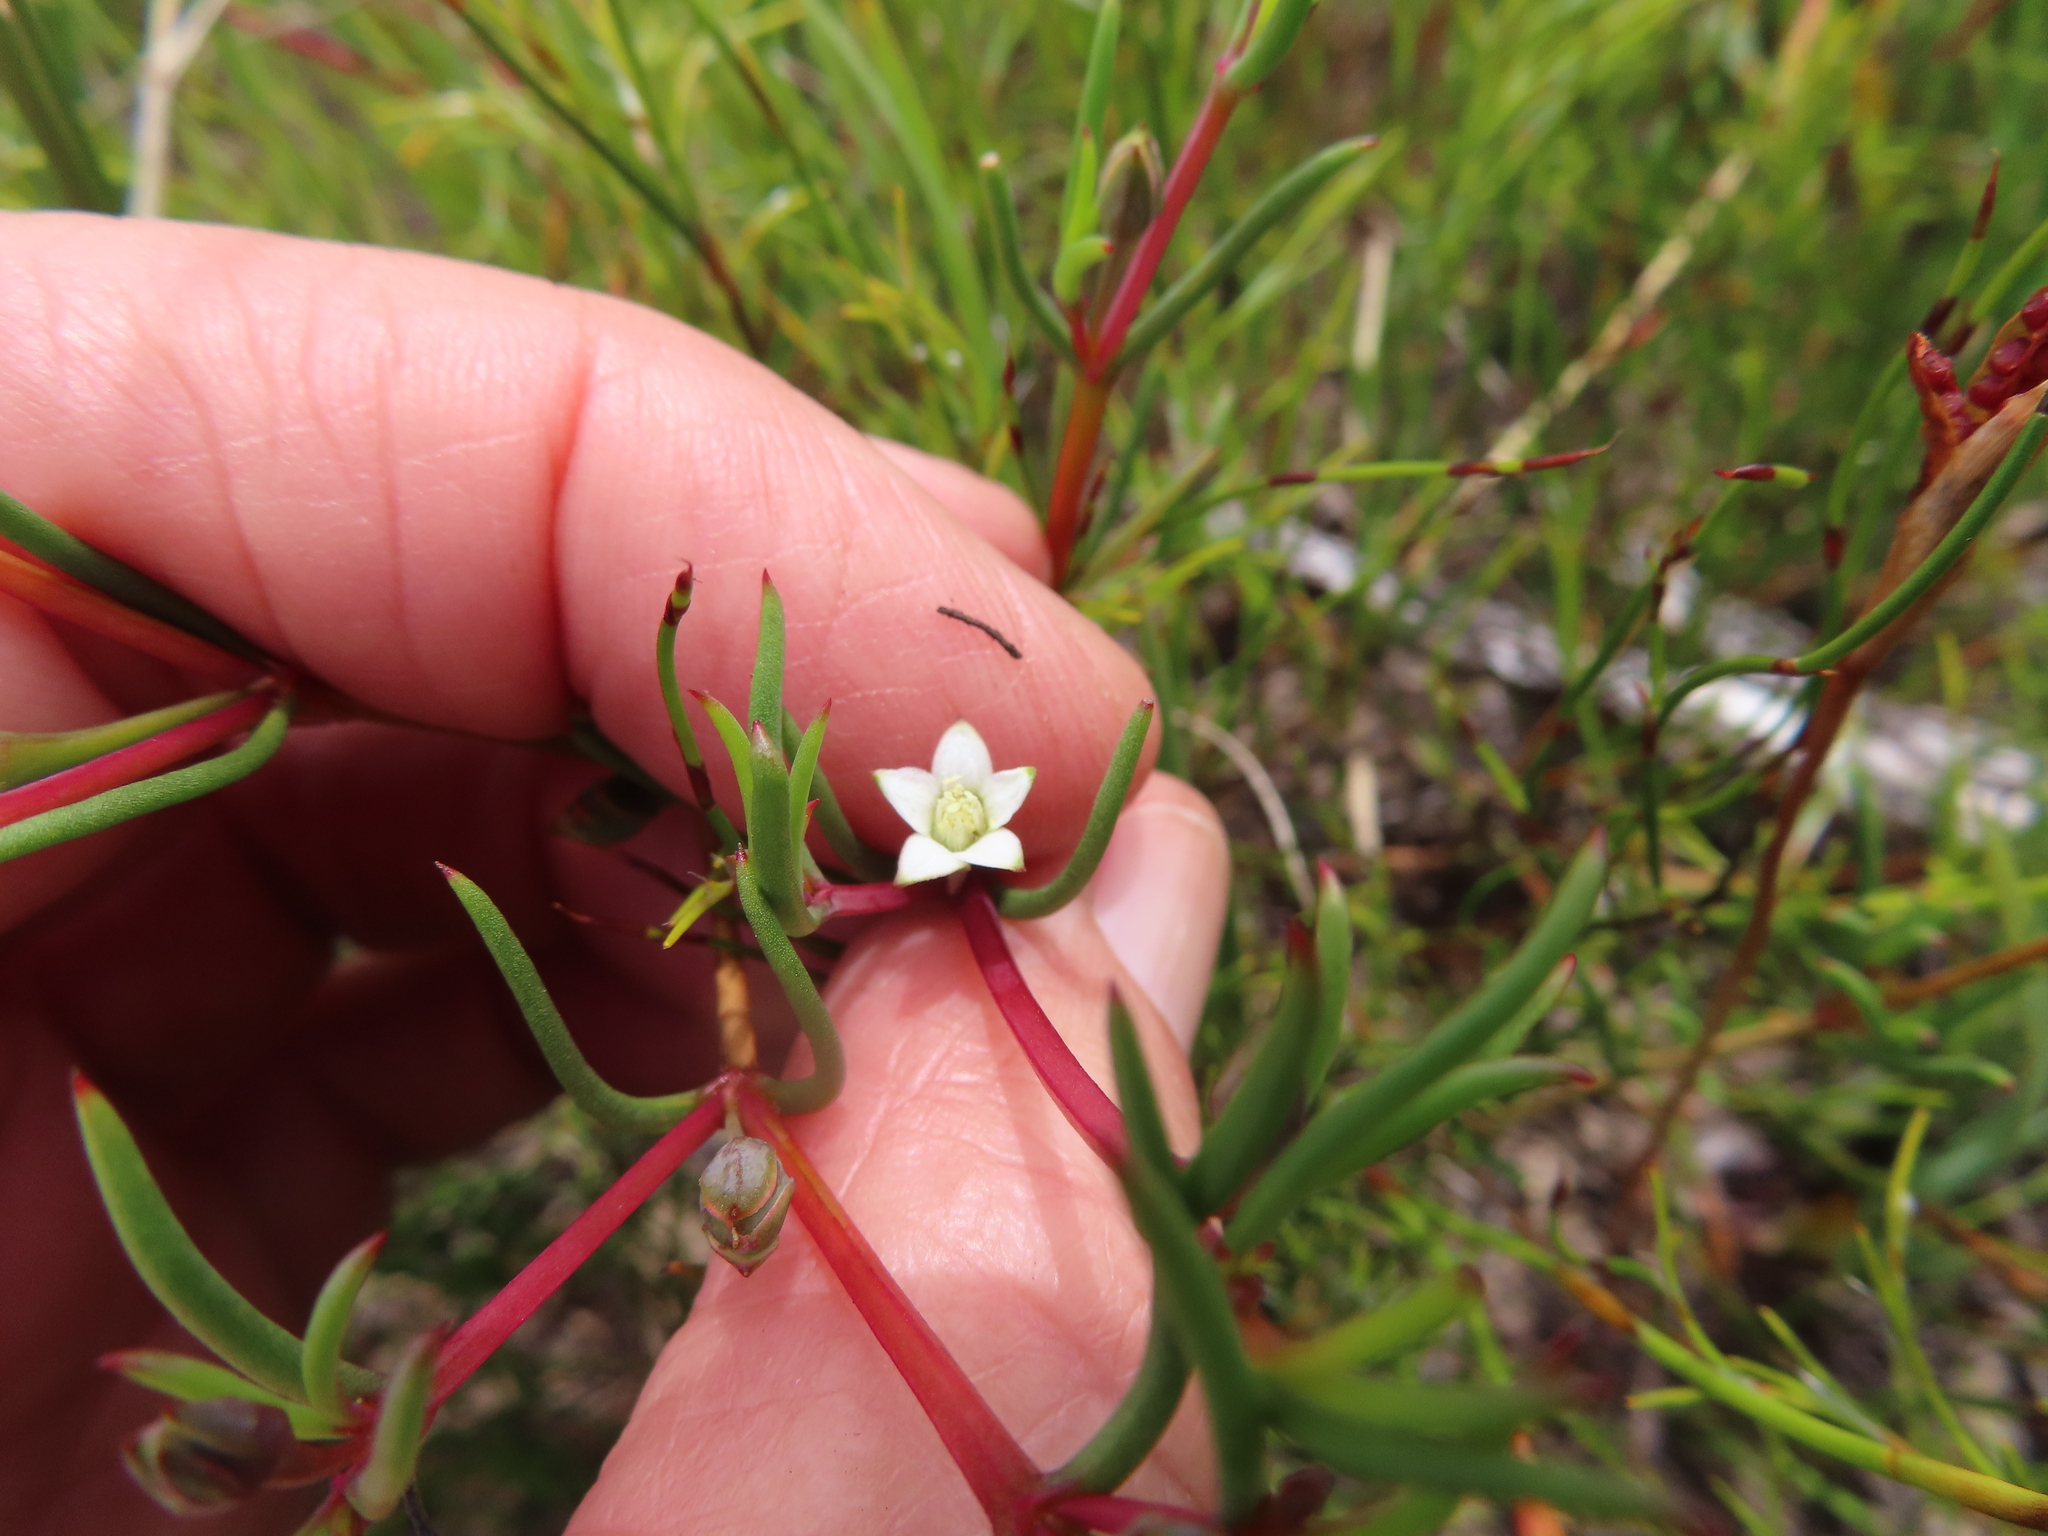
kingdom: Plantae
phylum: Tracheophyta
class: Magnoliopsida
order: Caryophyllales
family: Aizoaceae
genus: Acrosanthes
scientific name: Acrosanthes teretifolia
